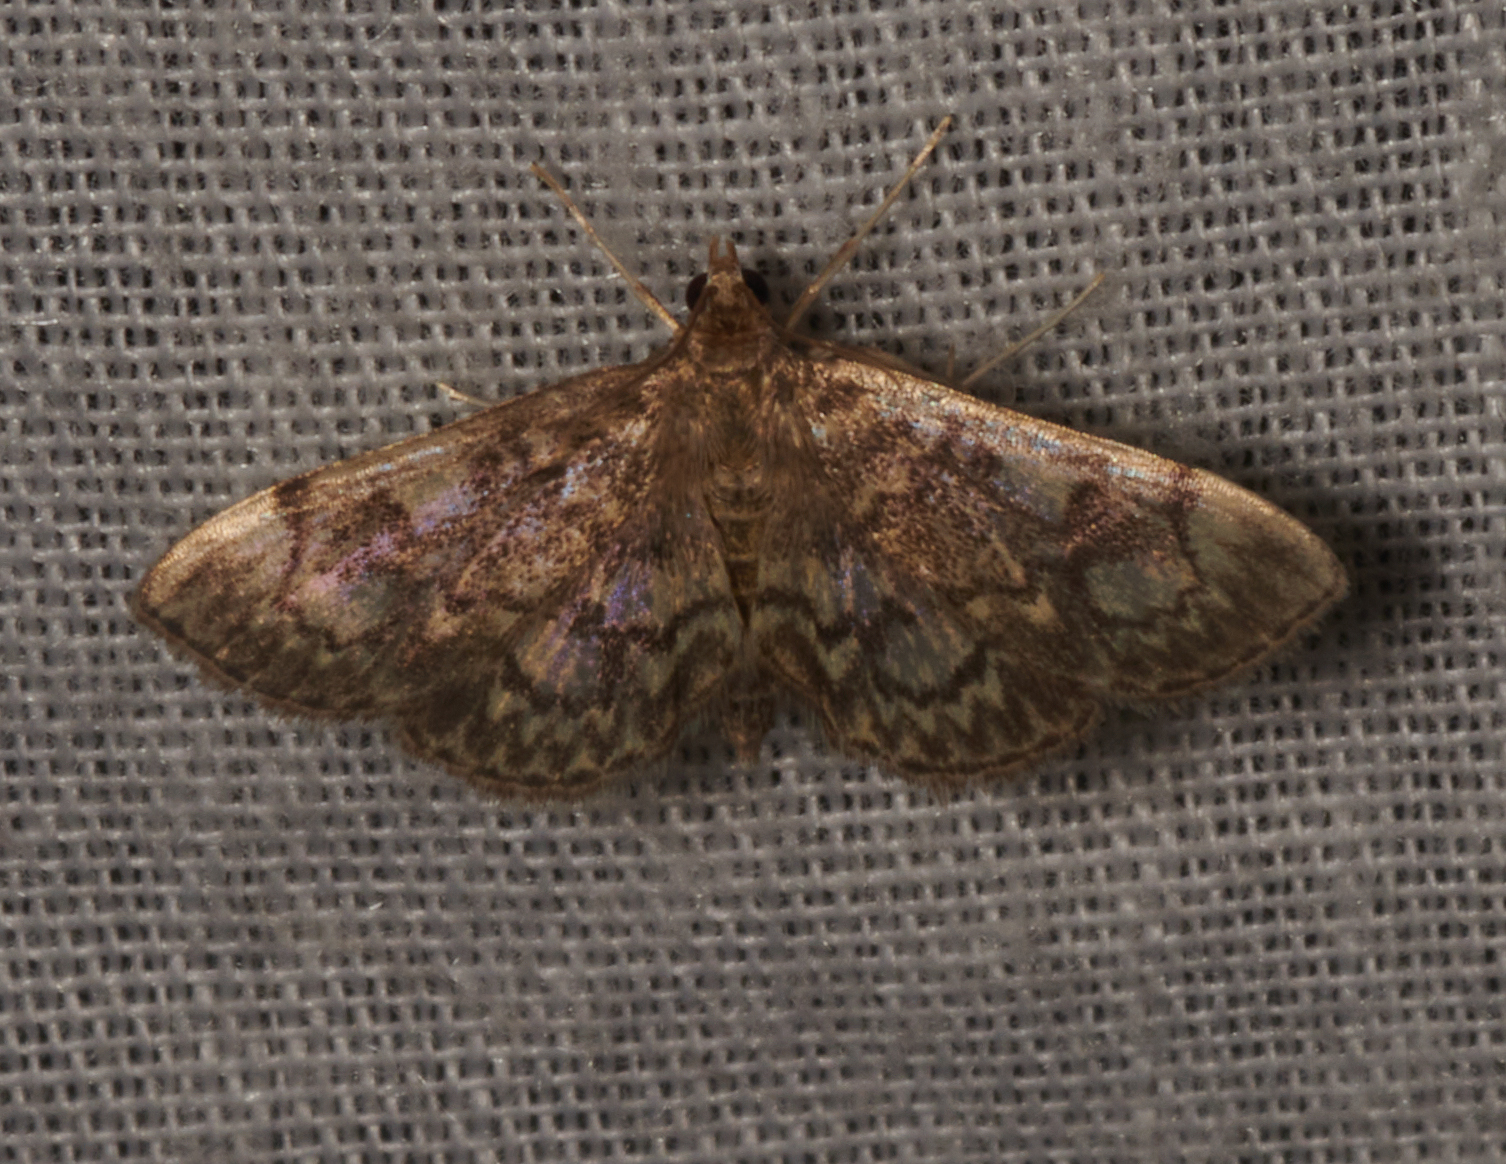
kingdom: Animalia
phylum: Arthropoda
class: Insecta
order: Lepidoptera
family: Crambidae
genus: Anania
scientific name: Anania
